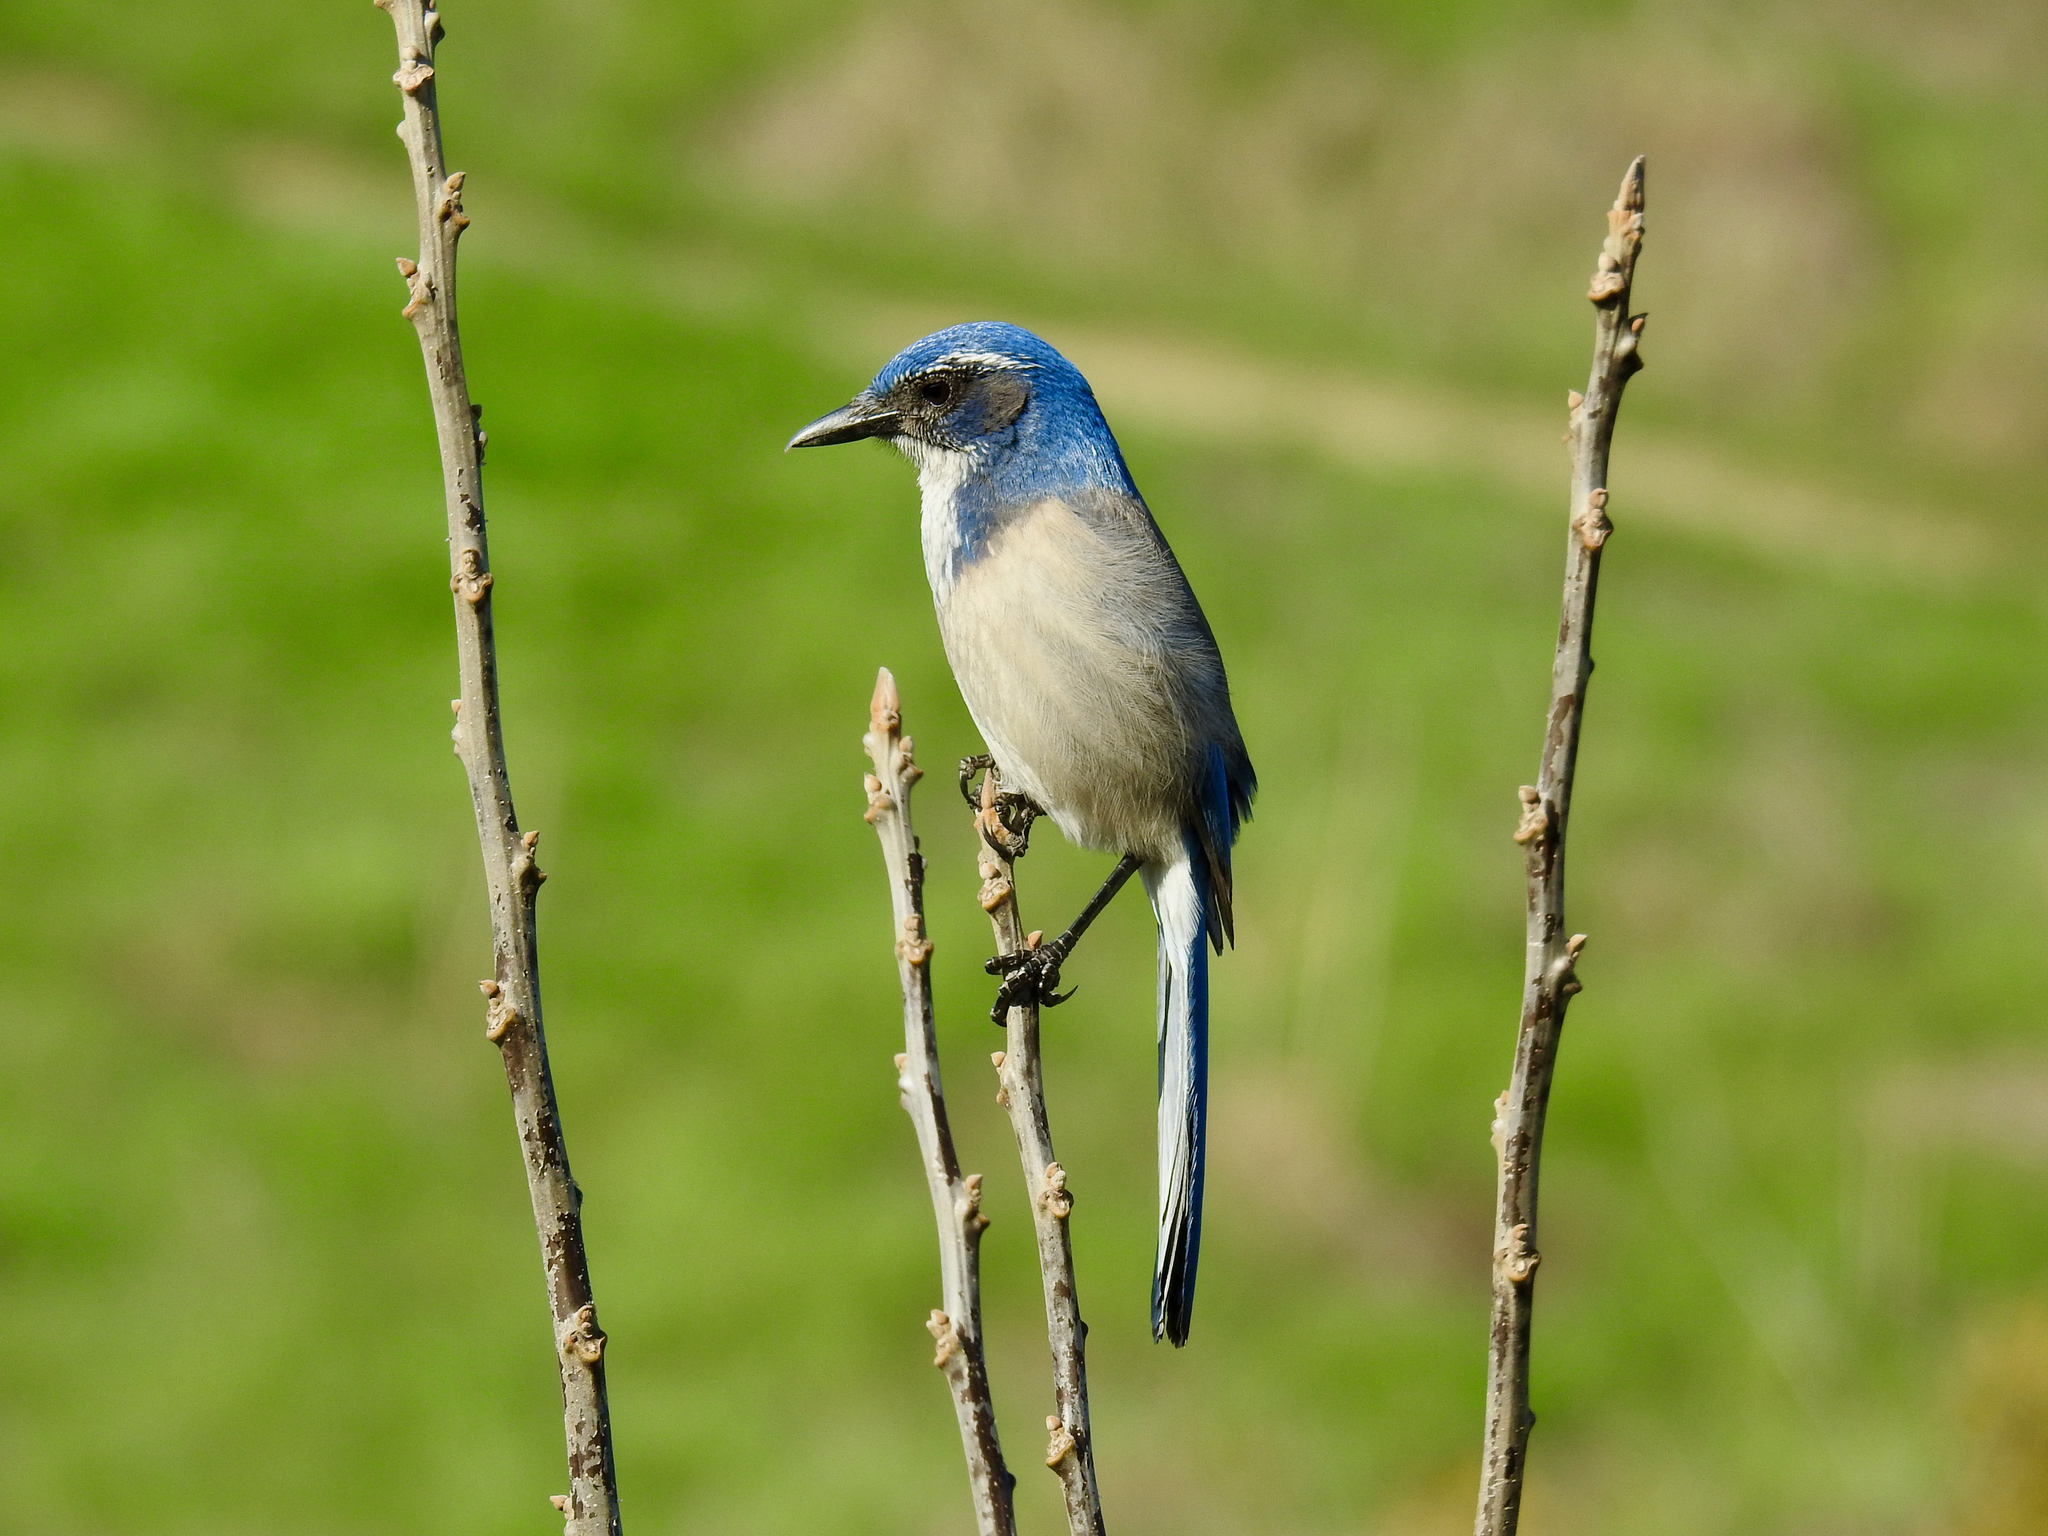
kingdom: Animalia
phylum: Chordata
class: Aves
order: Passeriformes
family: Corvidae
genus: Aphelocoma
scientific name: Aphelocoma californica
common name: California scrub-jay
